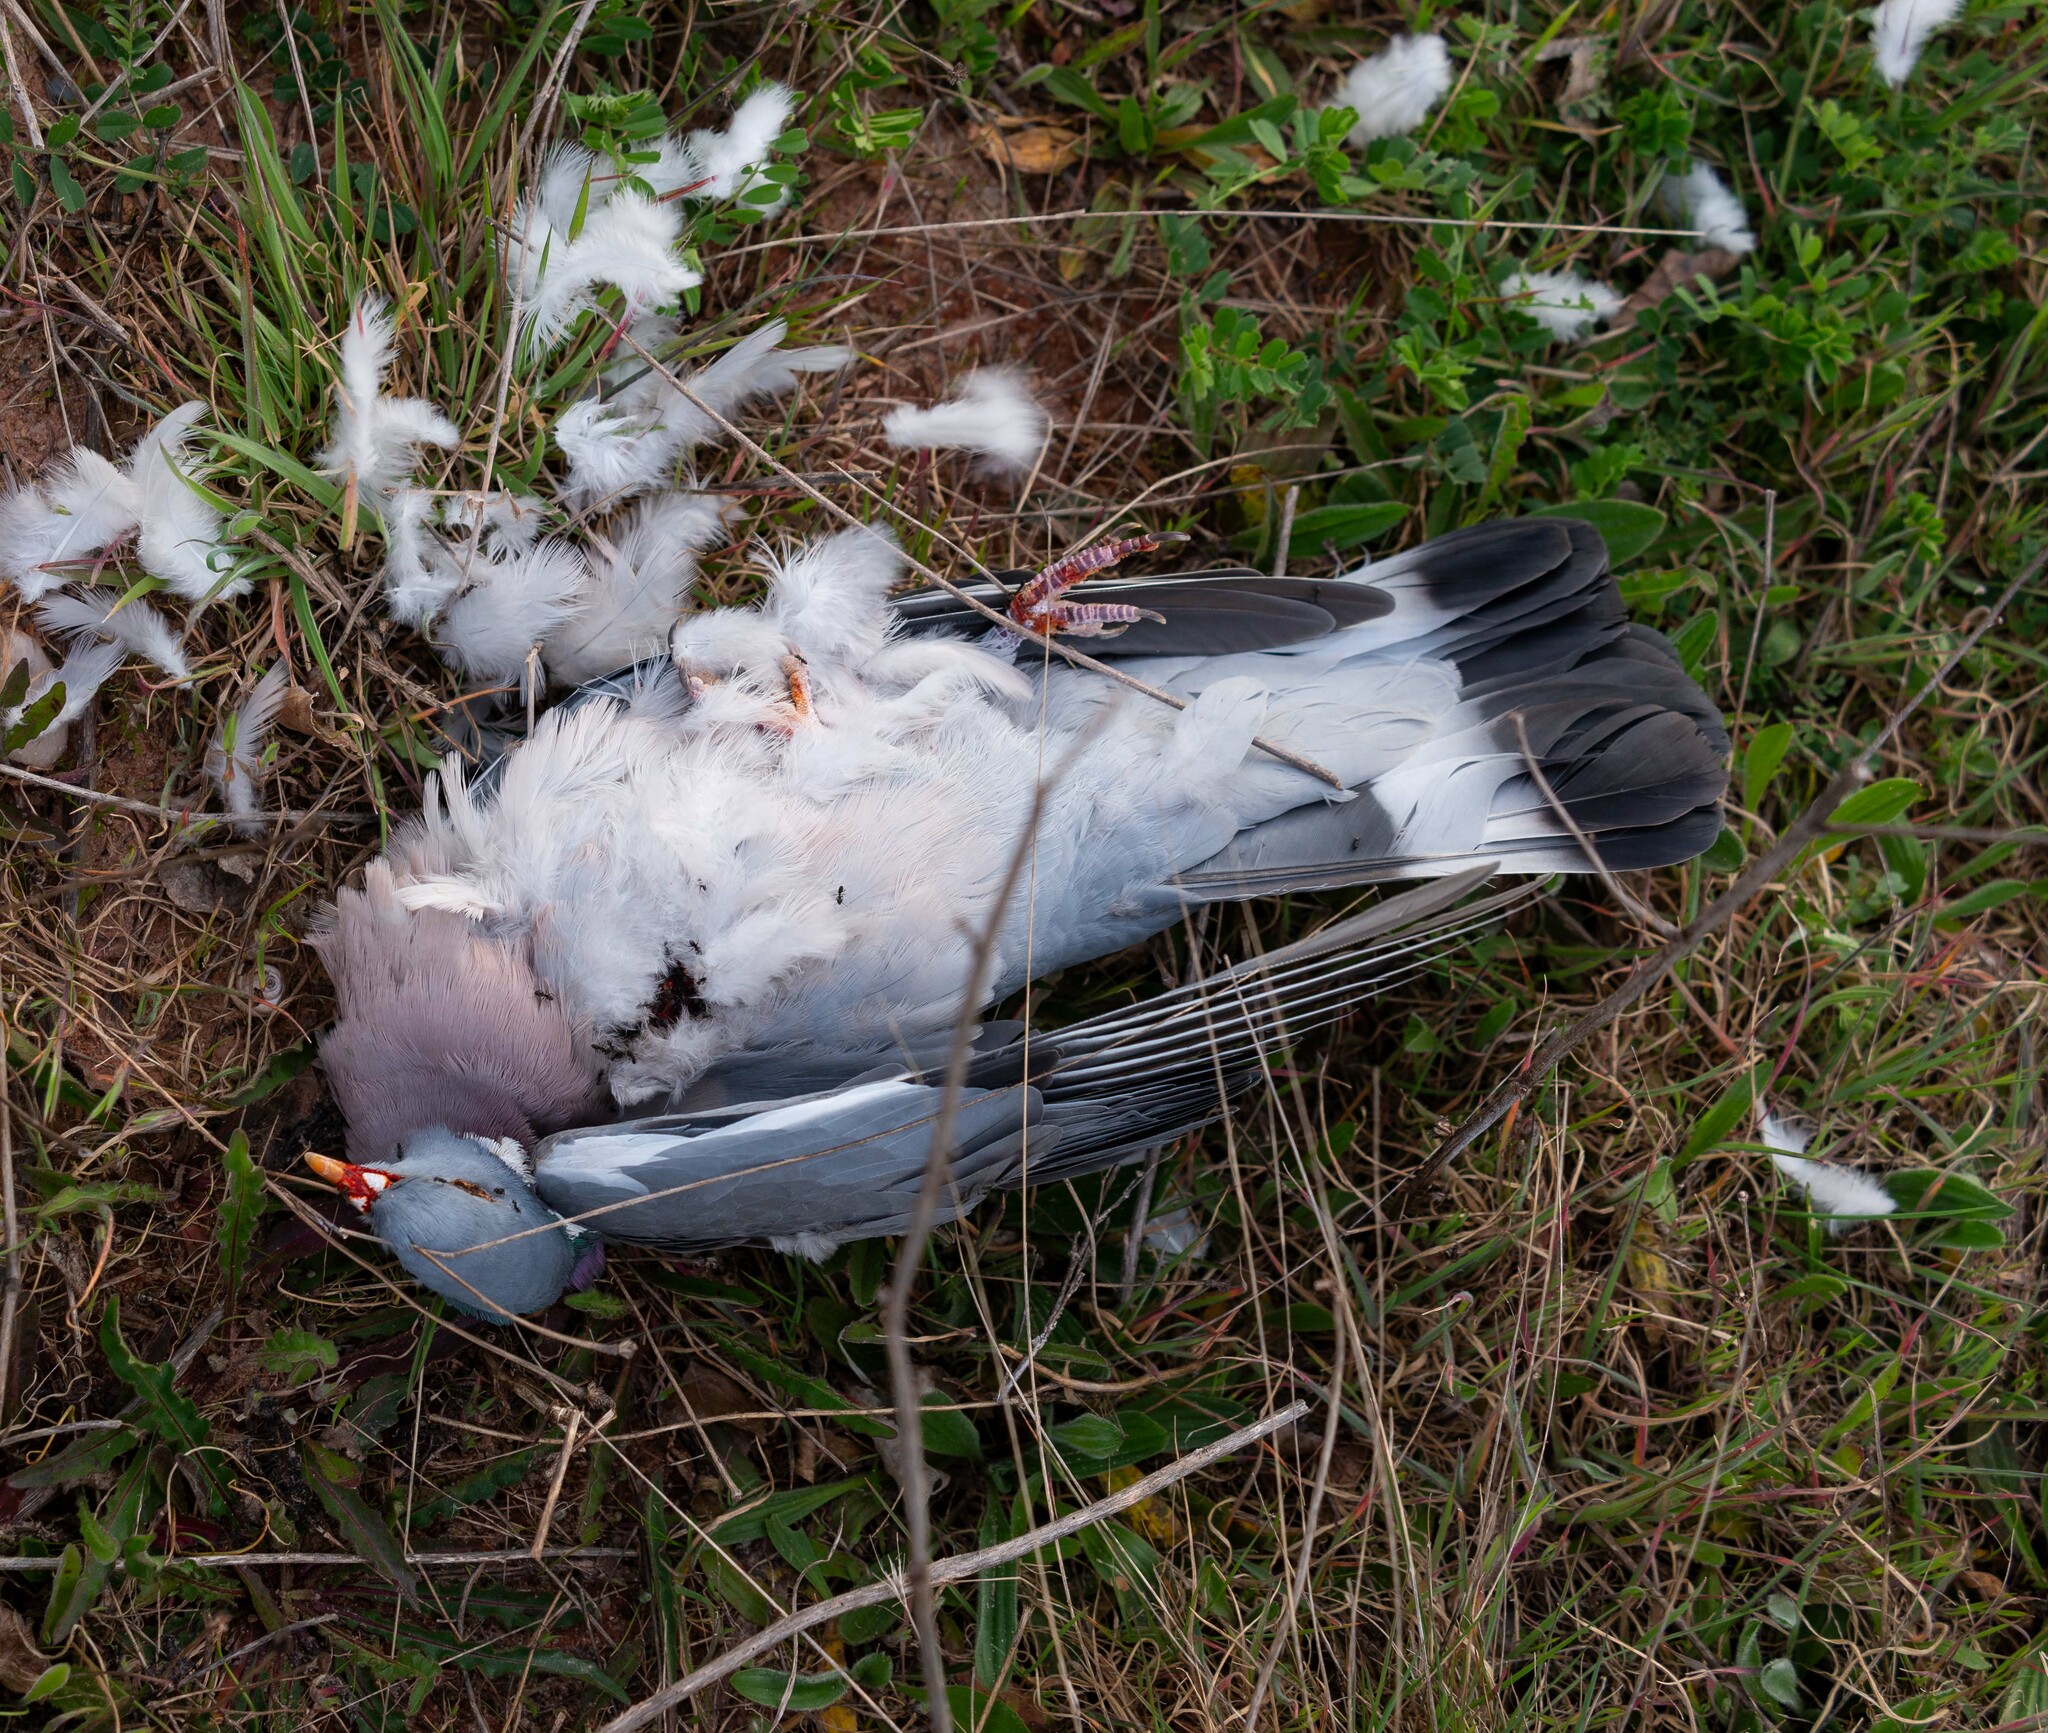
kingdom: Animalia
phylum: Chordata
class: Aves
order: Columbiformes
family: Columbidae
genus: Columba
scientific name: Columba palumbus
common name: Common wood pigeon
